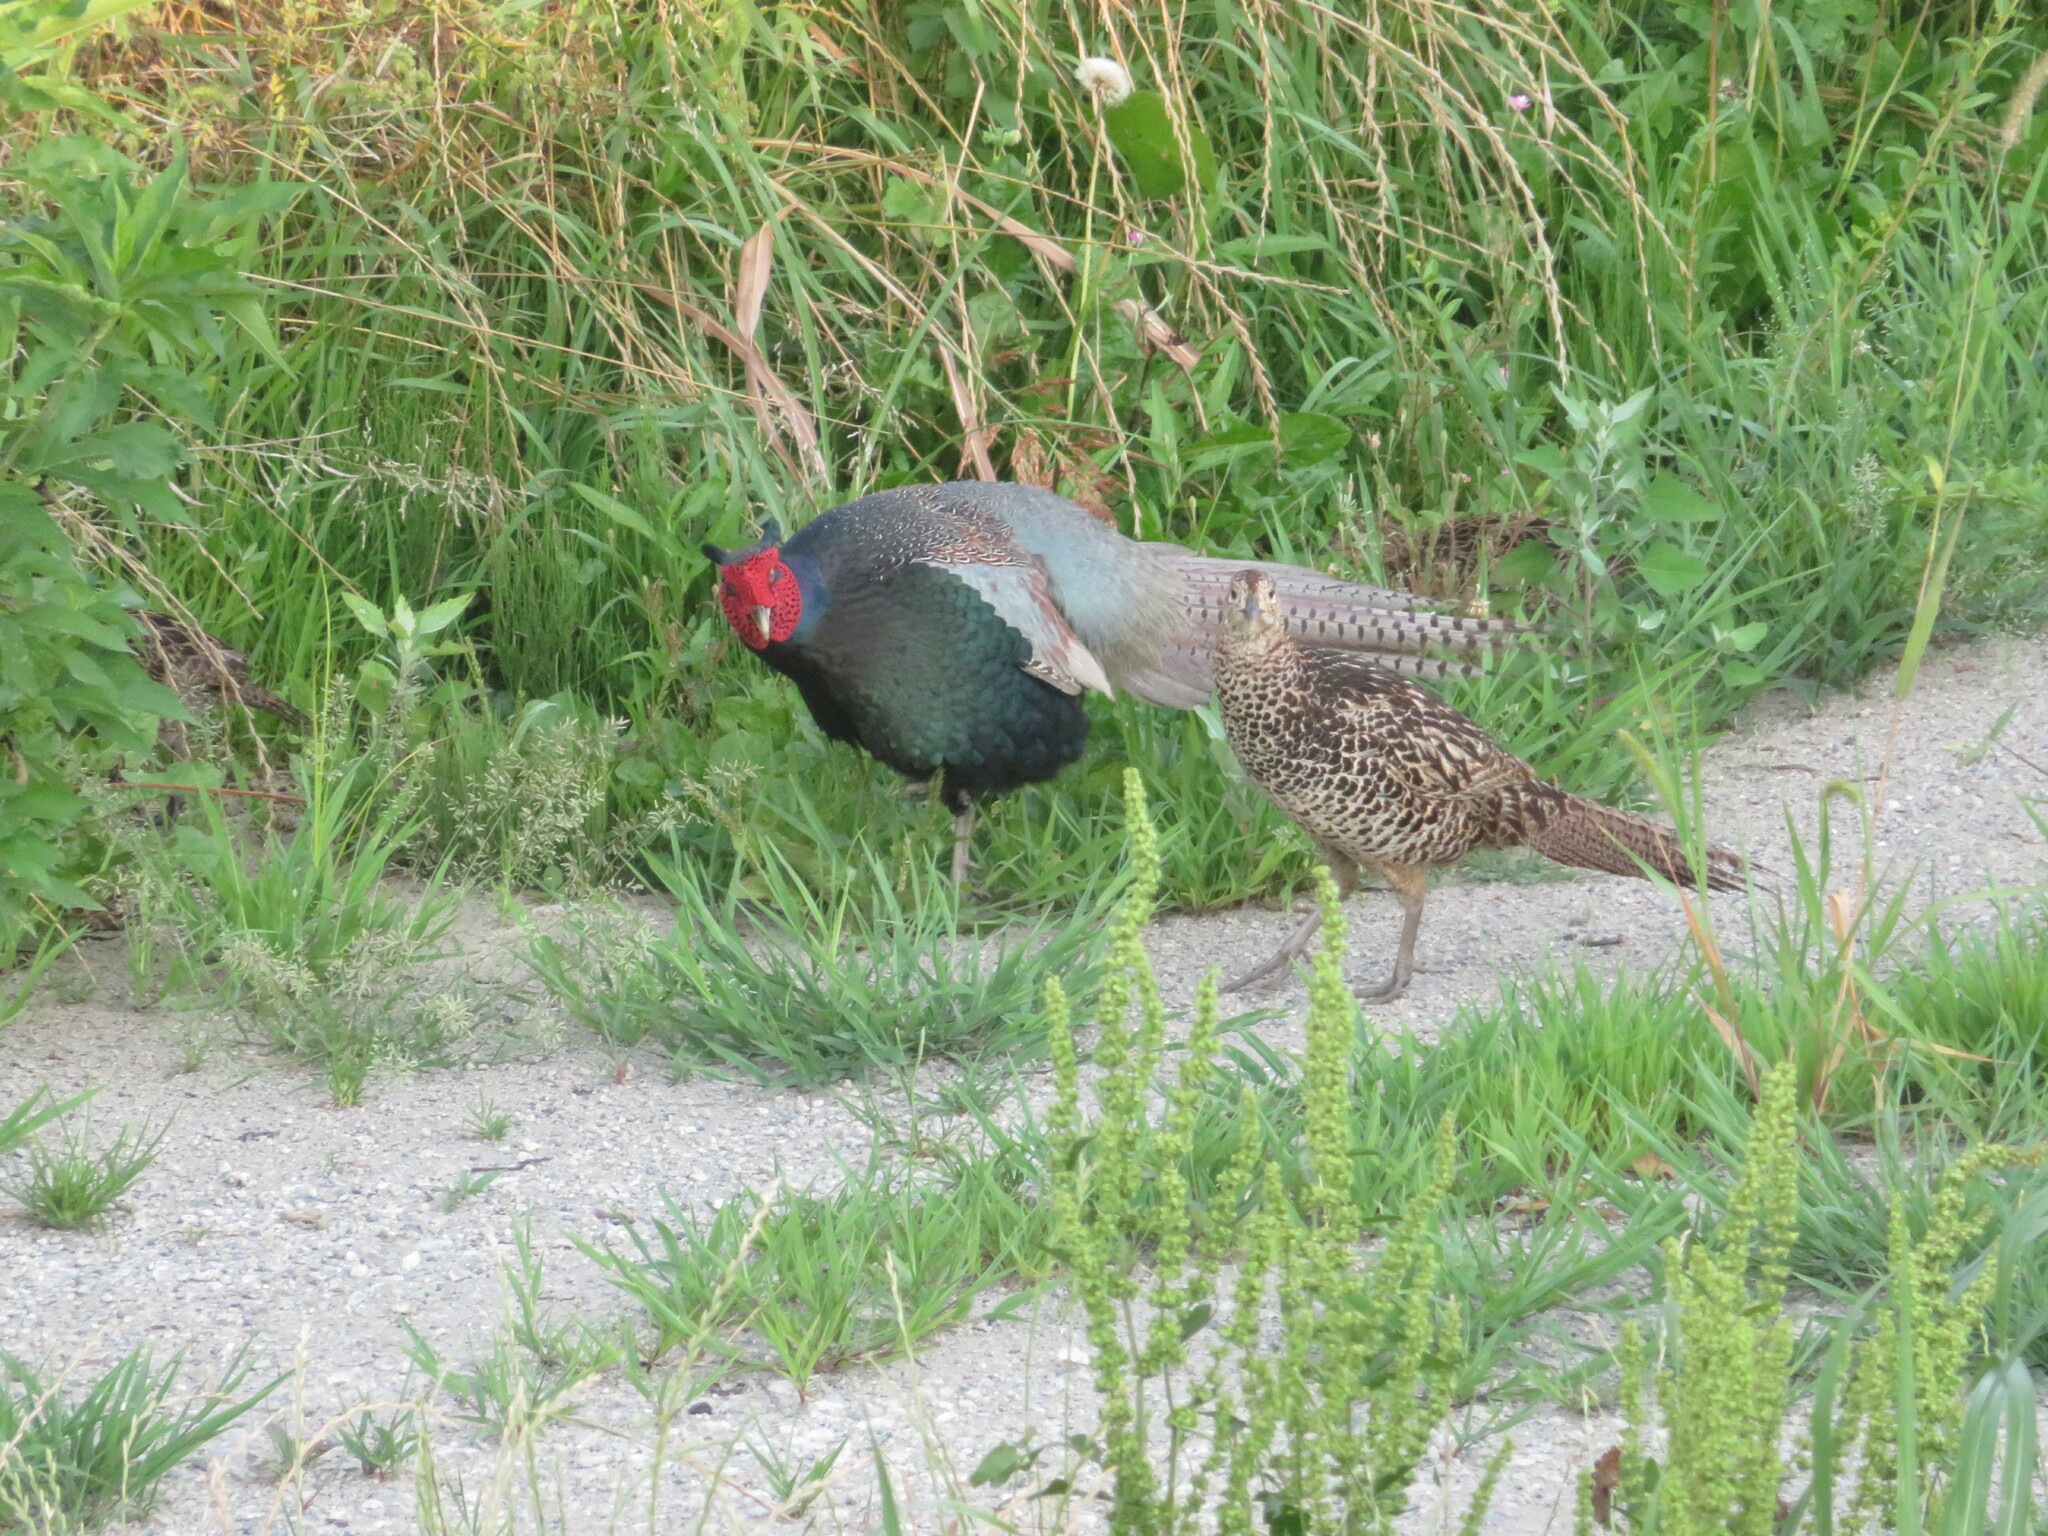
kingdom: Animalia
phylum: Chordata
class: Aves
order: Galliformes
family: Phasianidae
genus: Phasianus
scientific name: Phasianus versicolor
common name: Green pheasant
